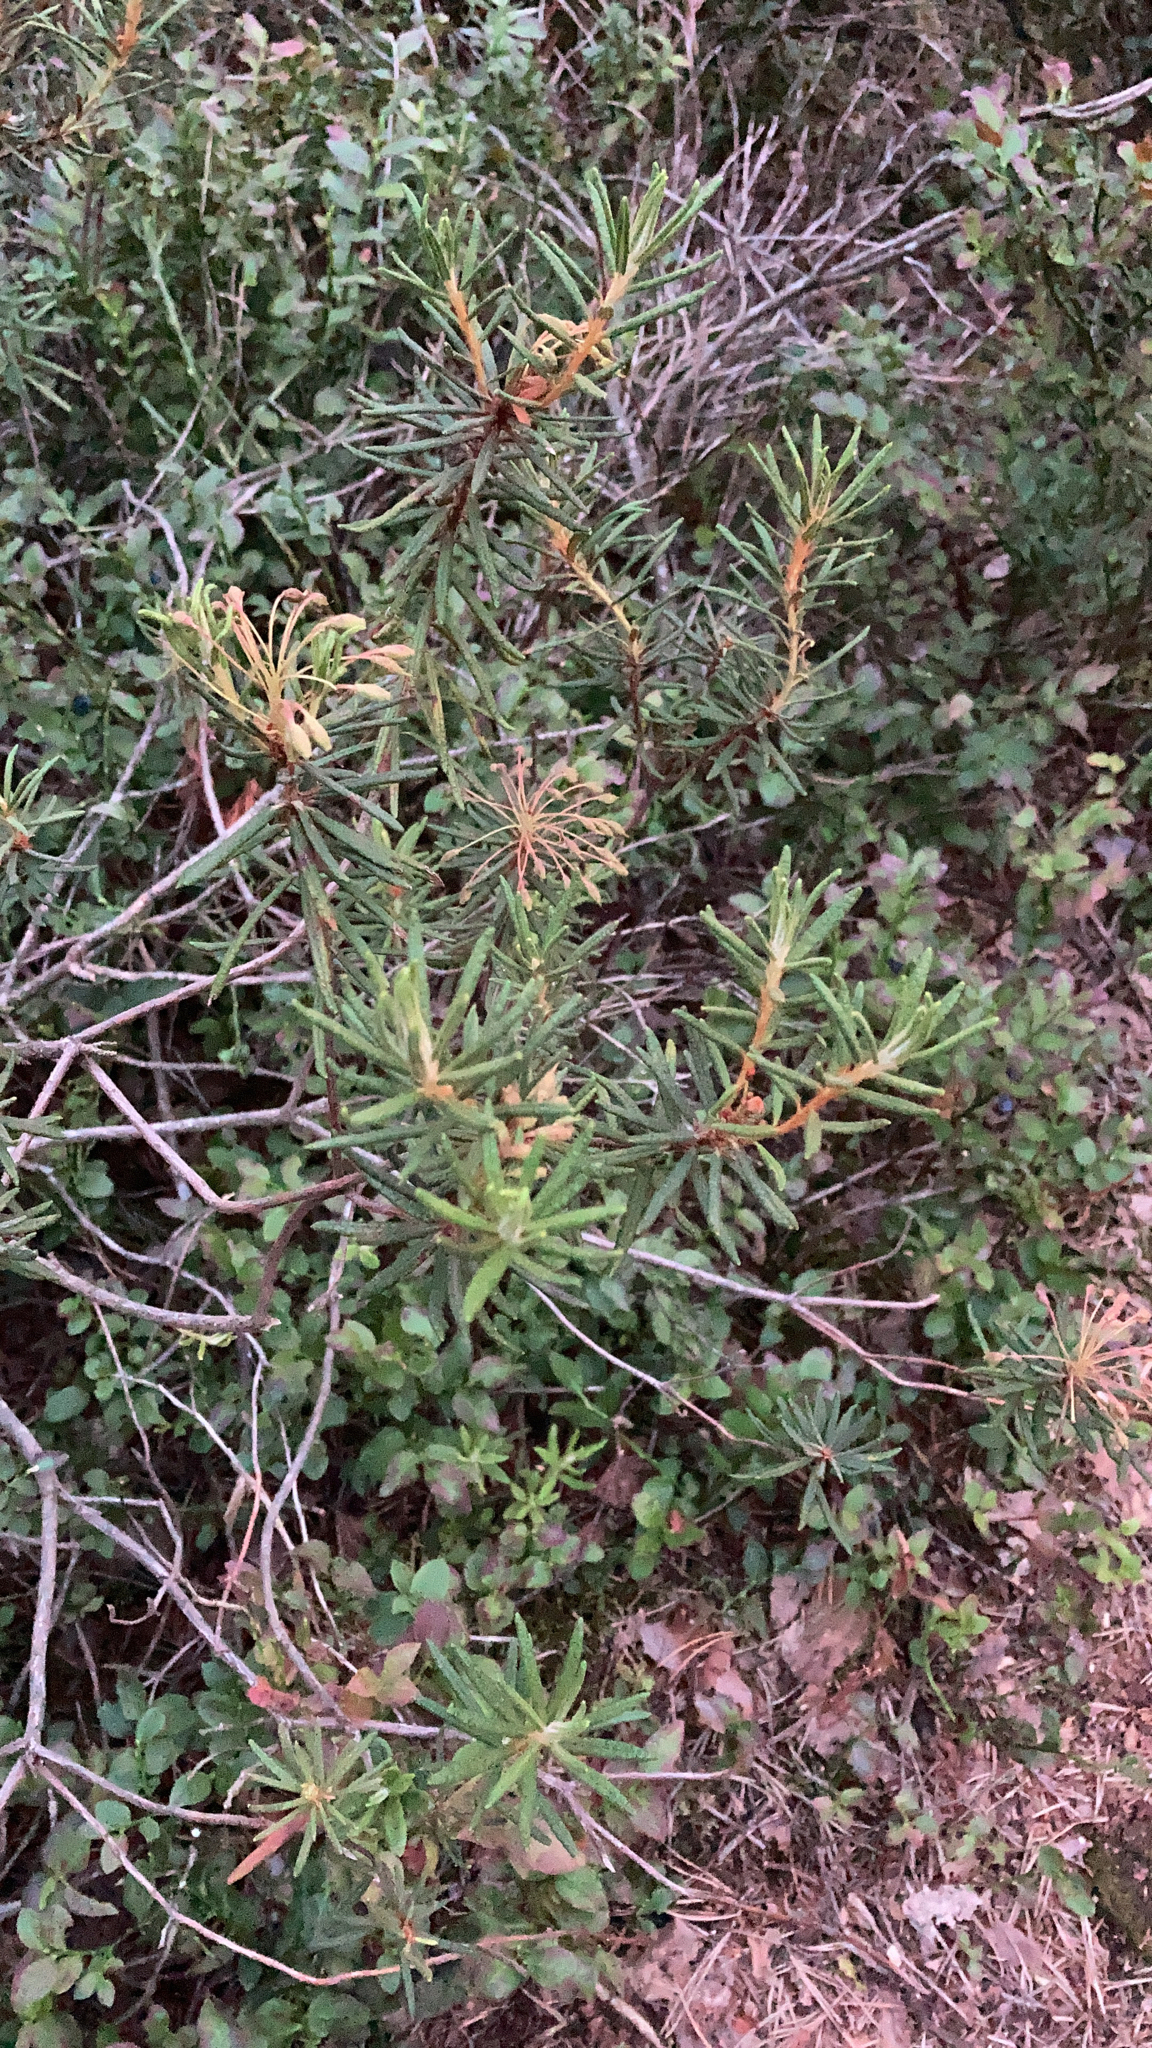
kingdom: Plantae
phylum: Tracheophyta
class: Magnoliopsida
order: Ericales
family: Ericaceae
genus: Rhododendron
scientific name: Rhododendron tomentosum
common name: Marsh labrador tea
